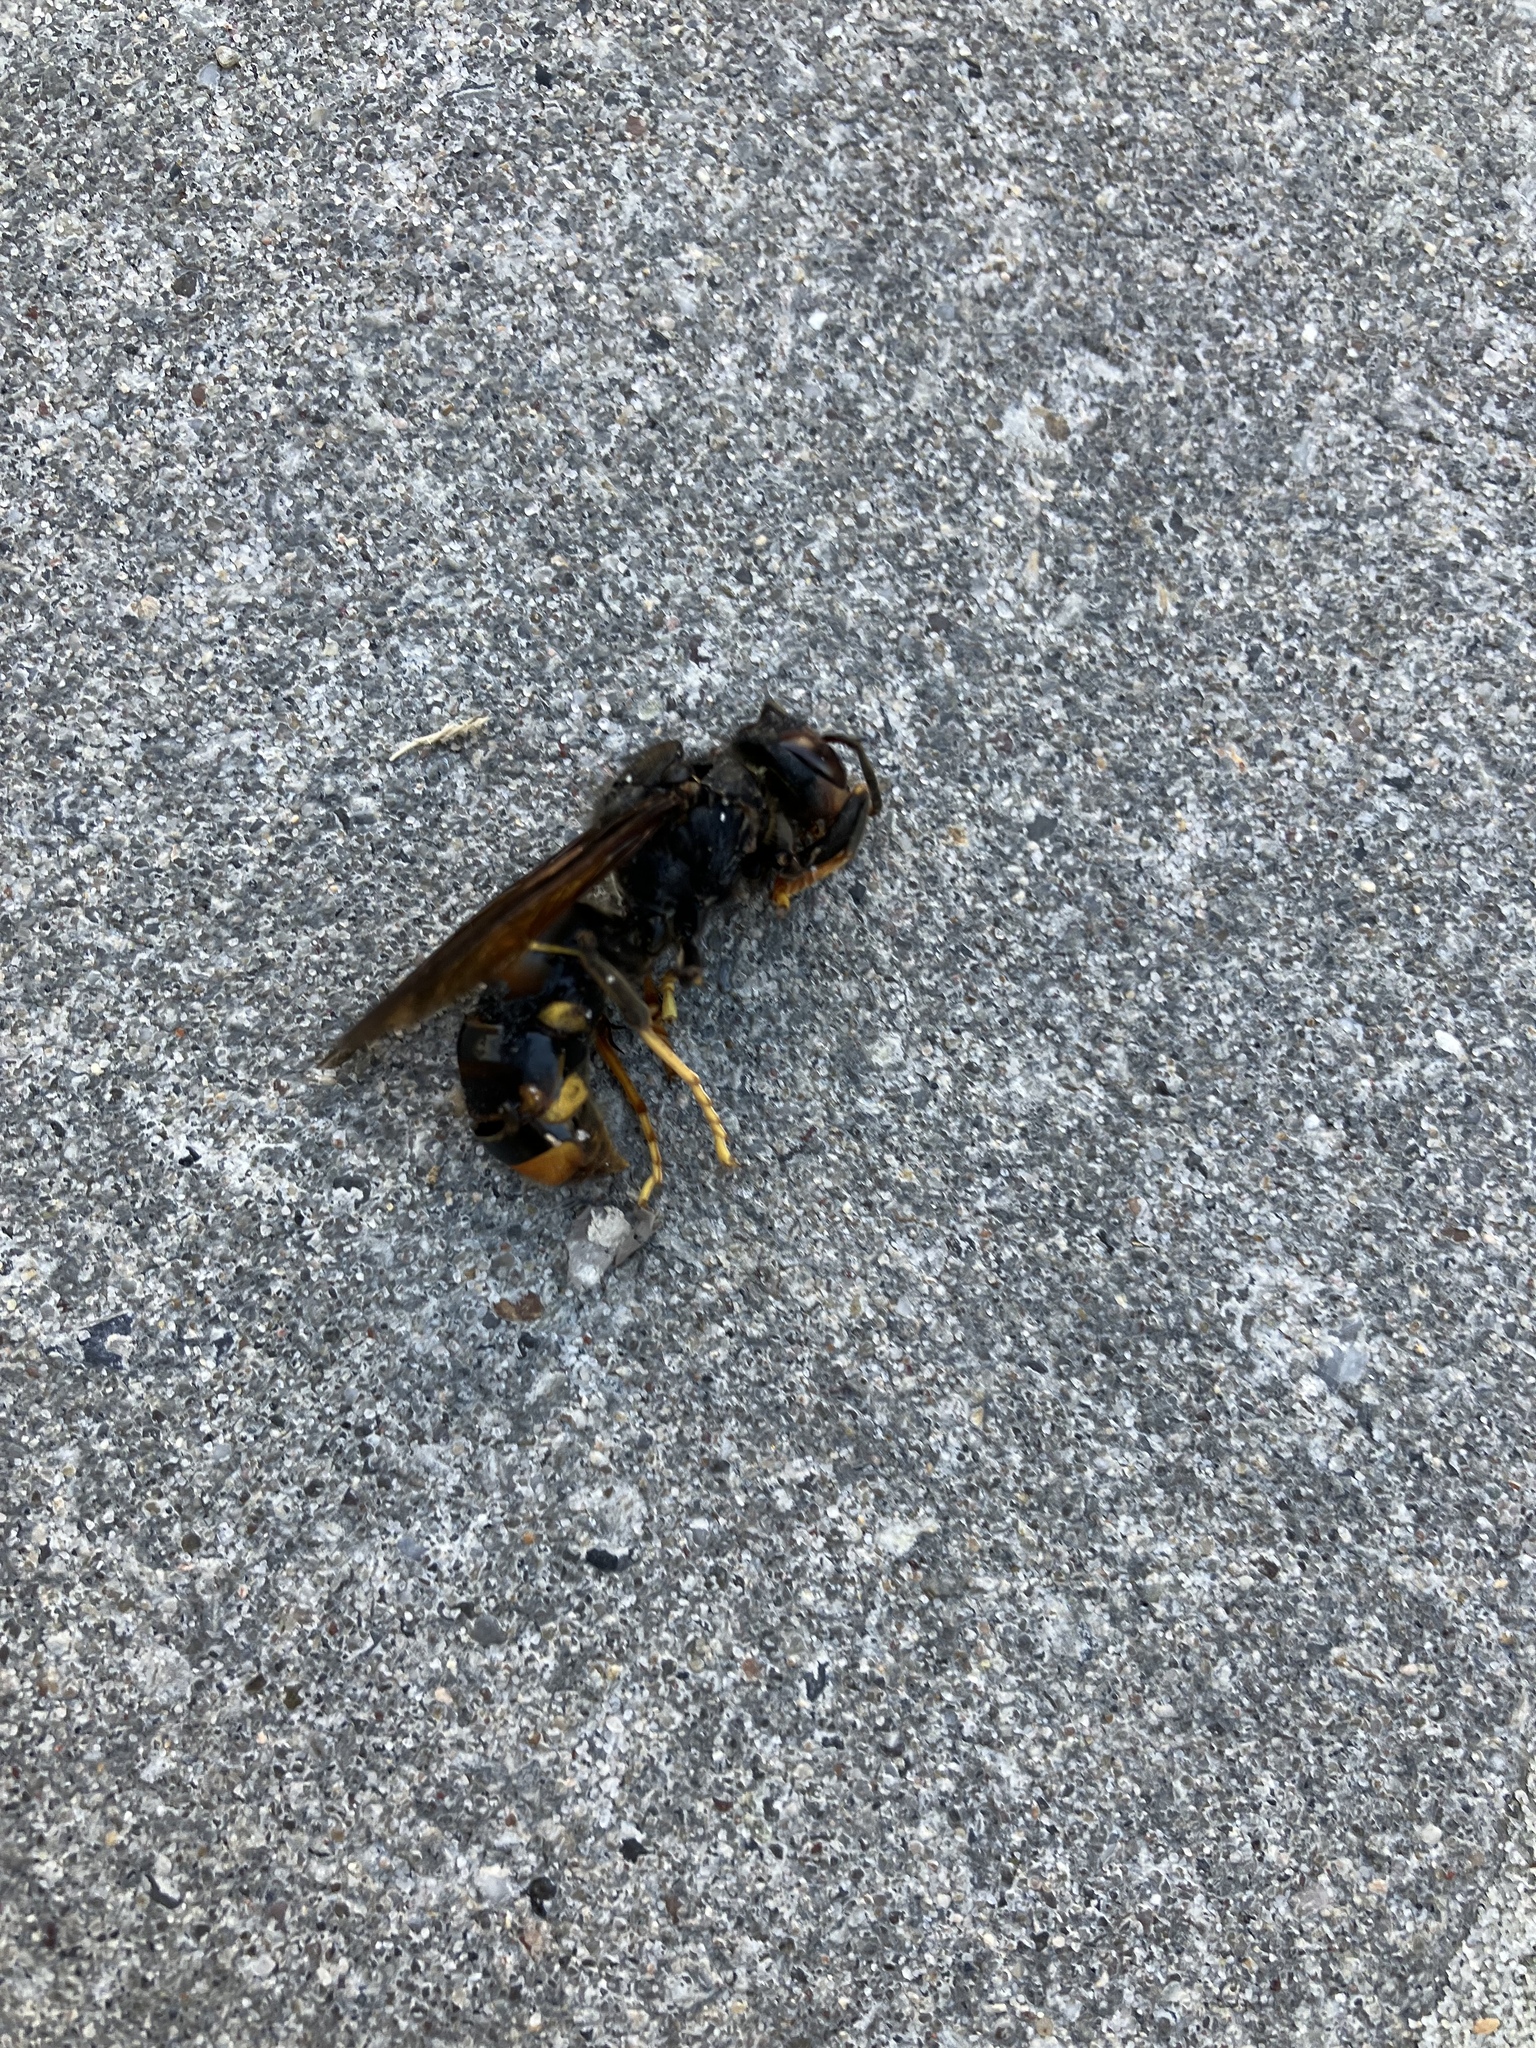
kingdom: Animalia
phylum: Arthropoda
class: Insecta
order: Hymenoptera
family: Vespidae
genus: Vespa
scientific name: Vespa velutina
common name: Asian hornet
